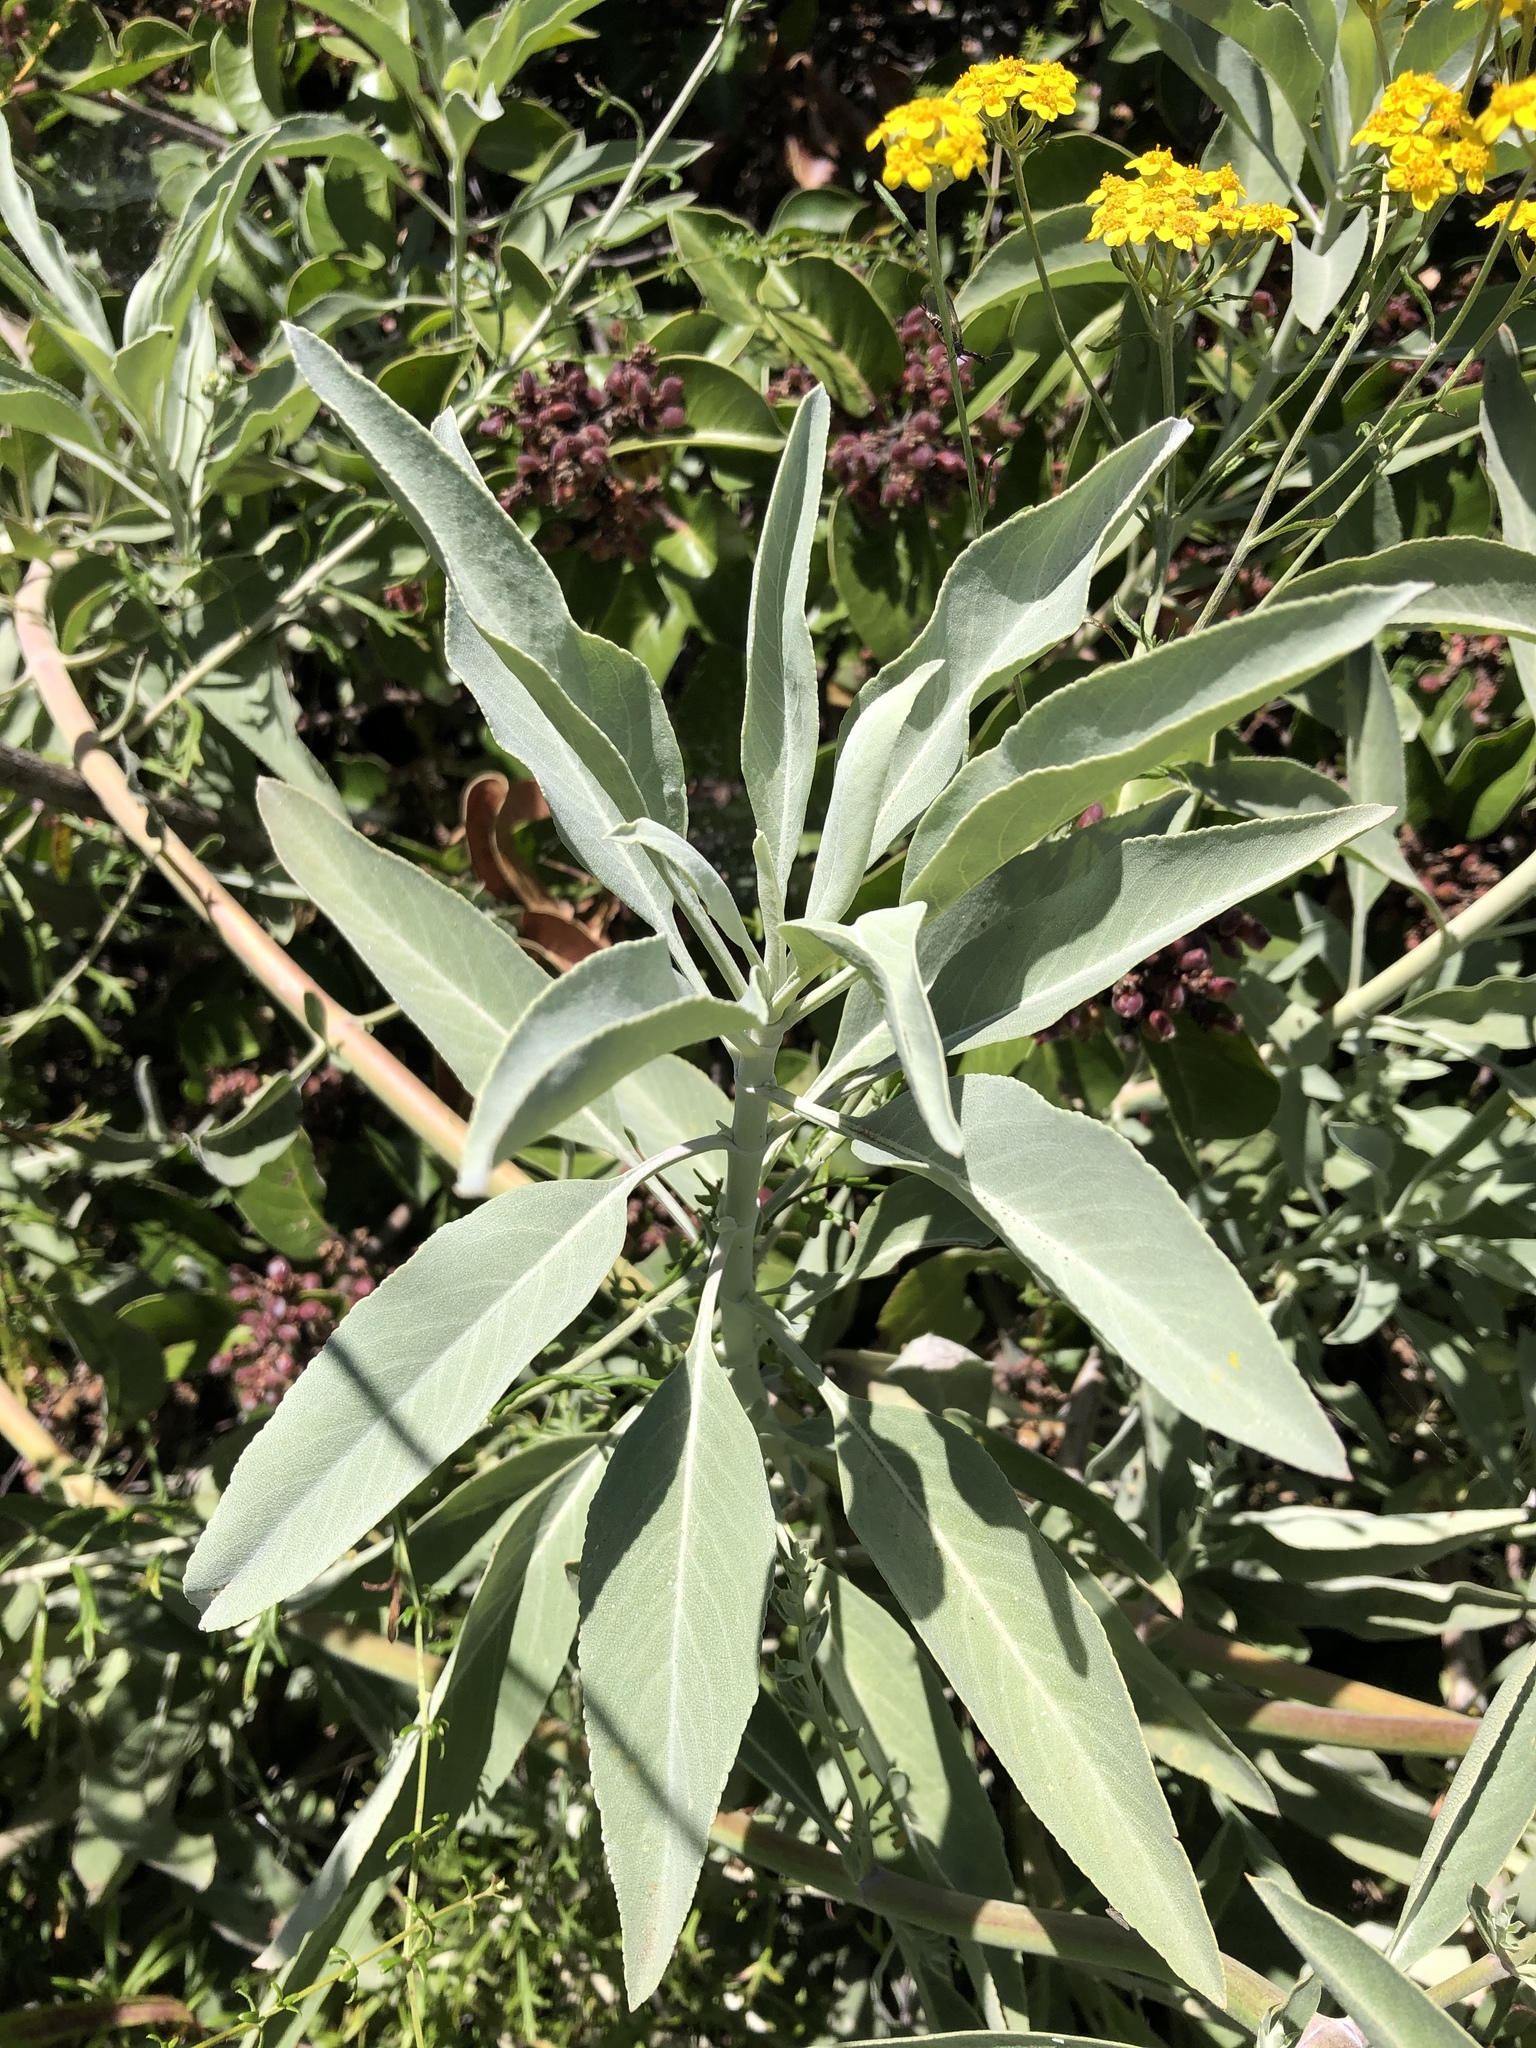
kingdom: Plantae
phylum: Tracheophyta
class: Magnoliopsida
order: Lamiales
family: Lamiaceae
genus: Salvia
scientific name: Salvia apiana
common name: White sage
